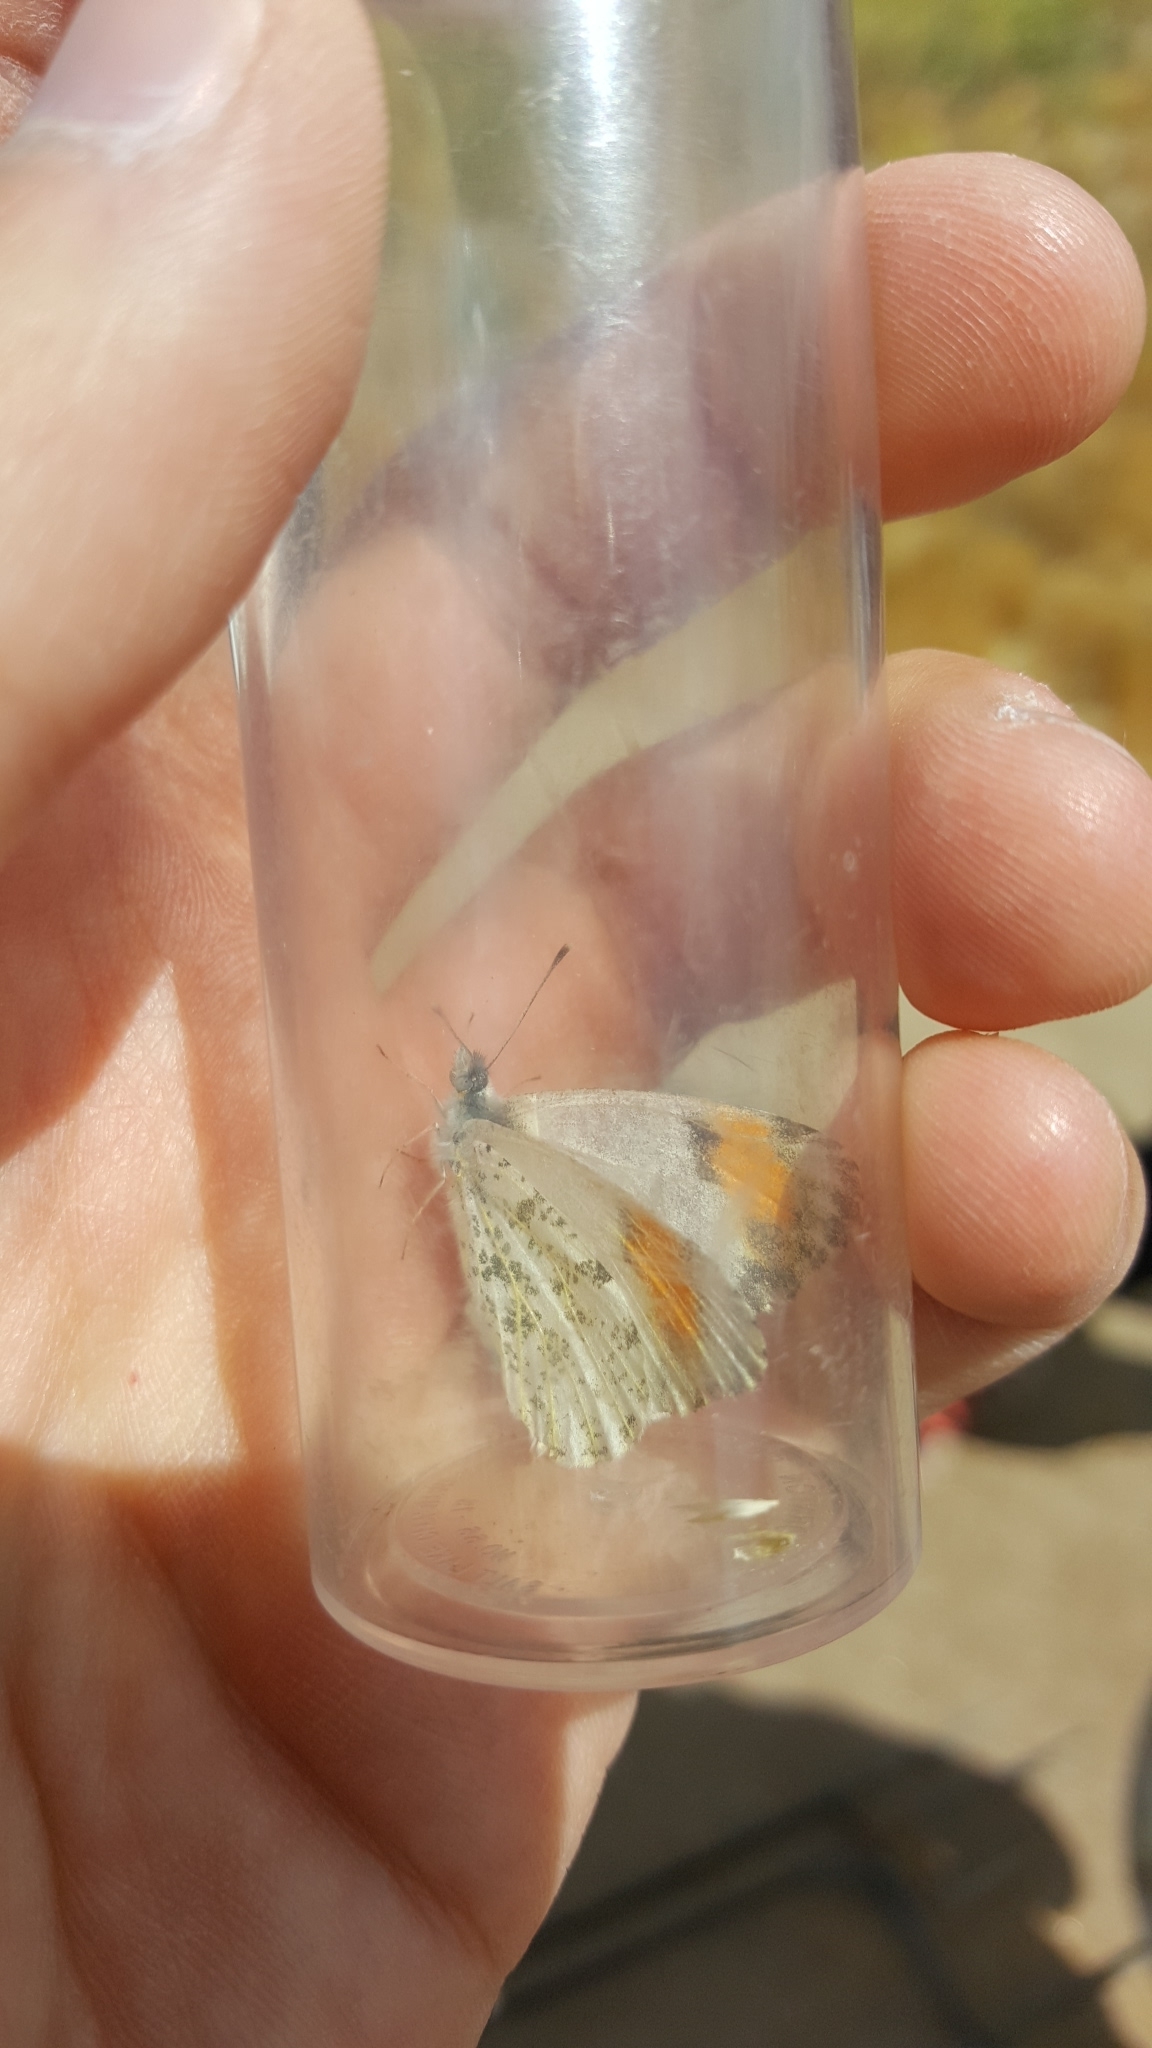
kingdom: Animalia
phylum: Arthropoda
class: Insecta
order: Lepidoptera
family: Pieridae
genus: Anthocharis
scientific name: Anthocharis sara
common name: Sara's orangetip
